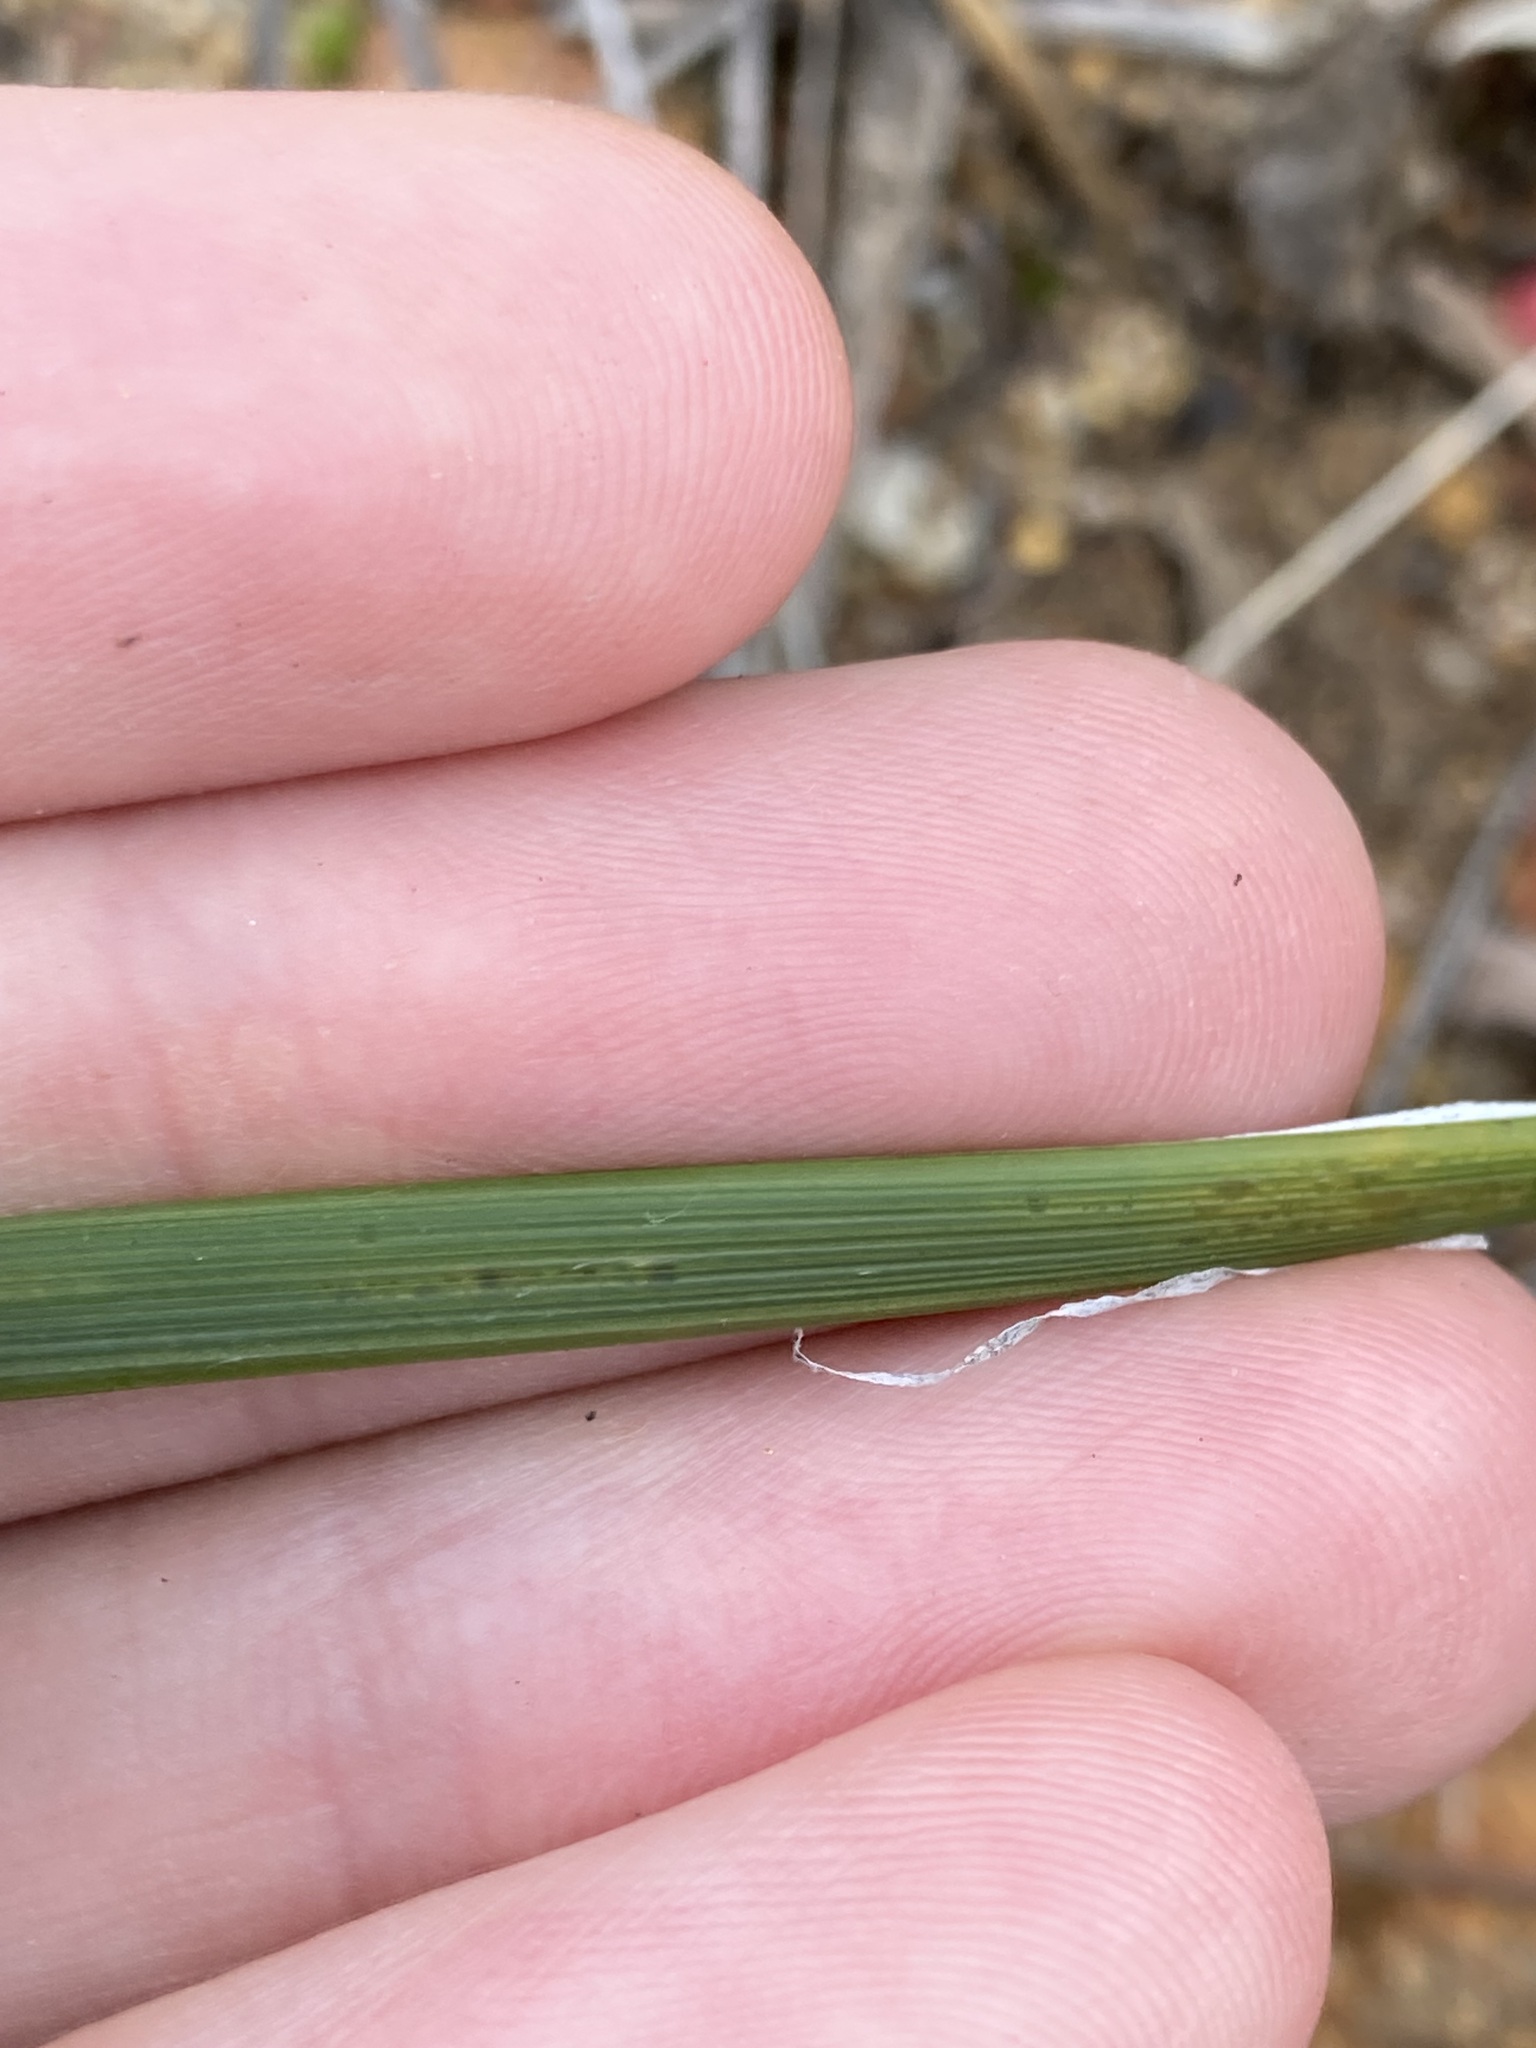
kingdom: Plantae
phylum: Tracheophyta
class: Liliopsida
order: Asparagales
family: Asparagaceae
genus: Lomandra
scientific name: Lomandra preissii
